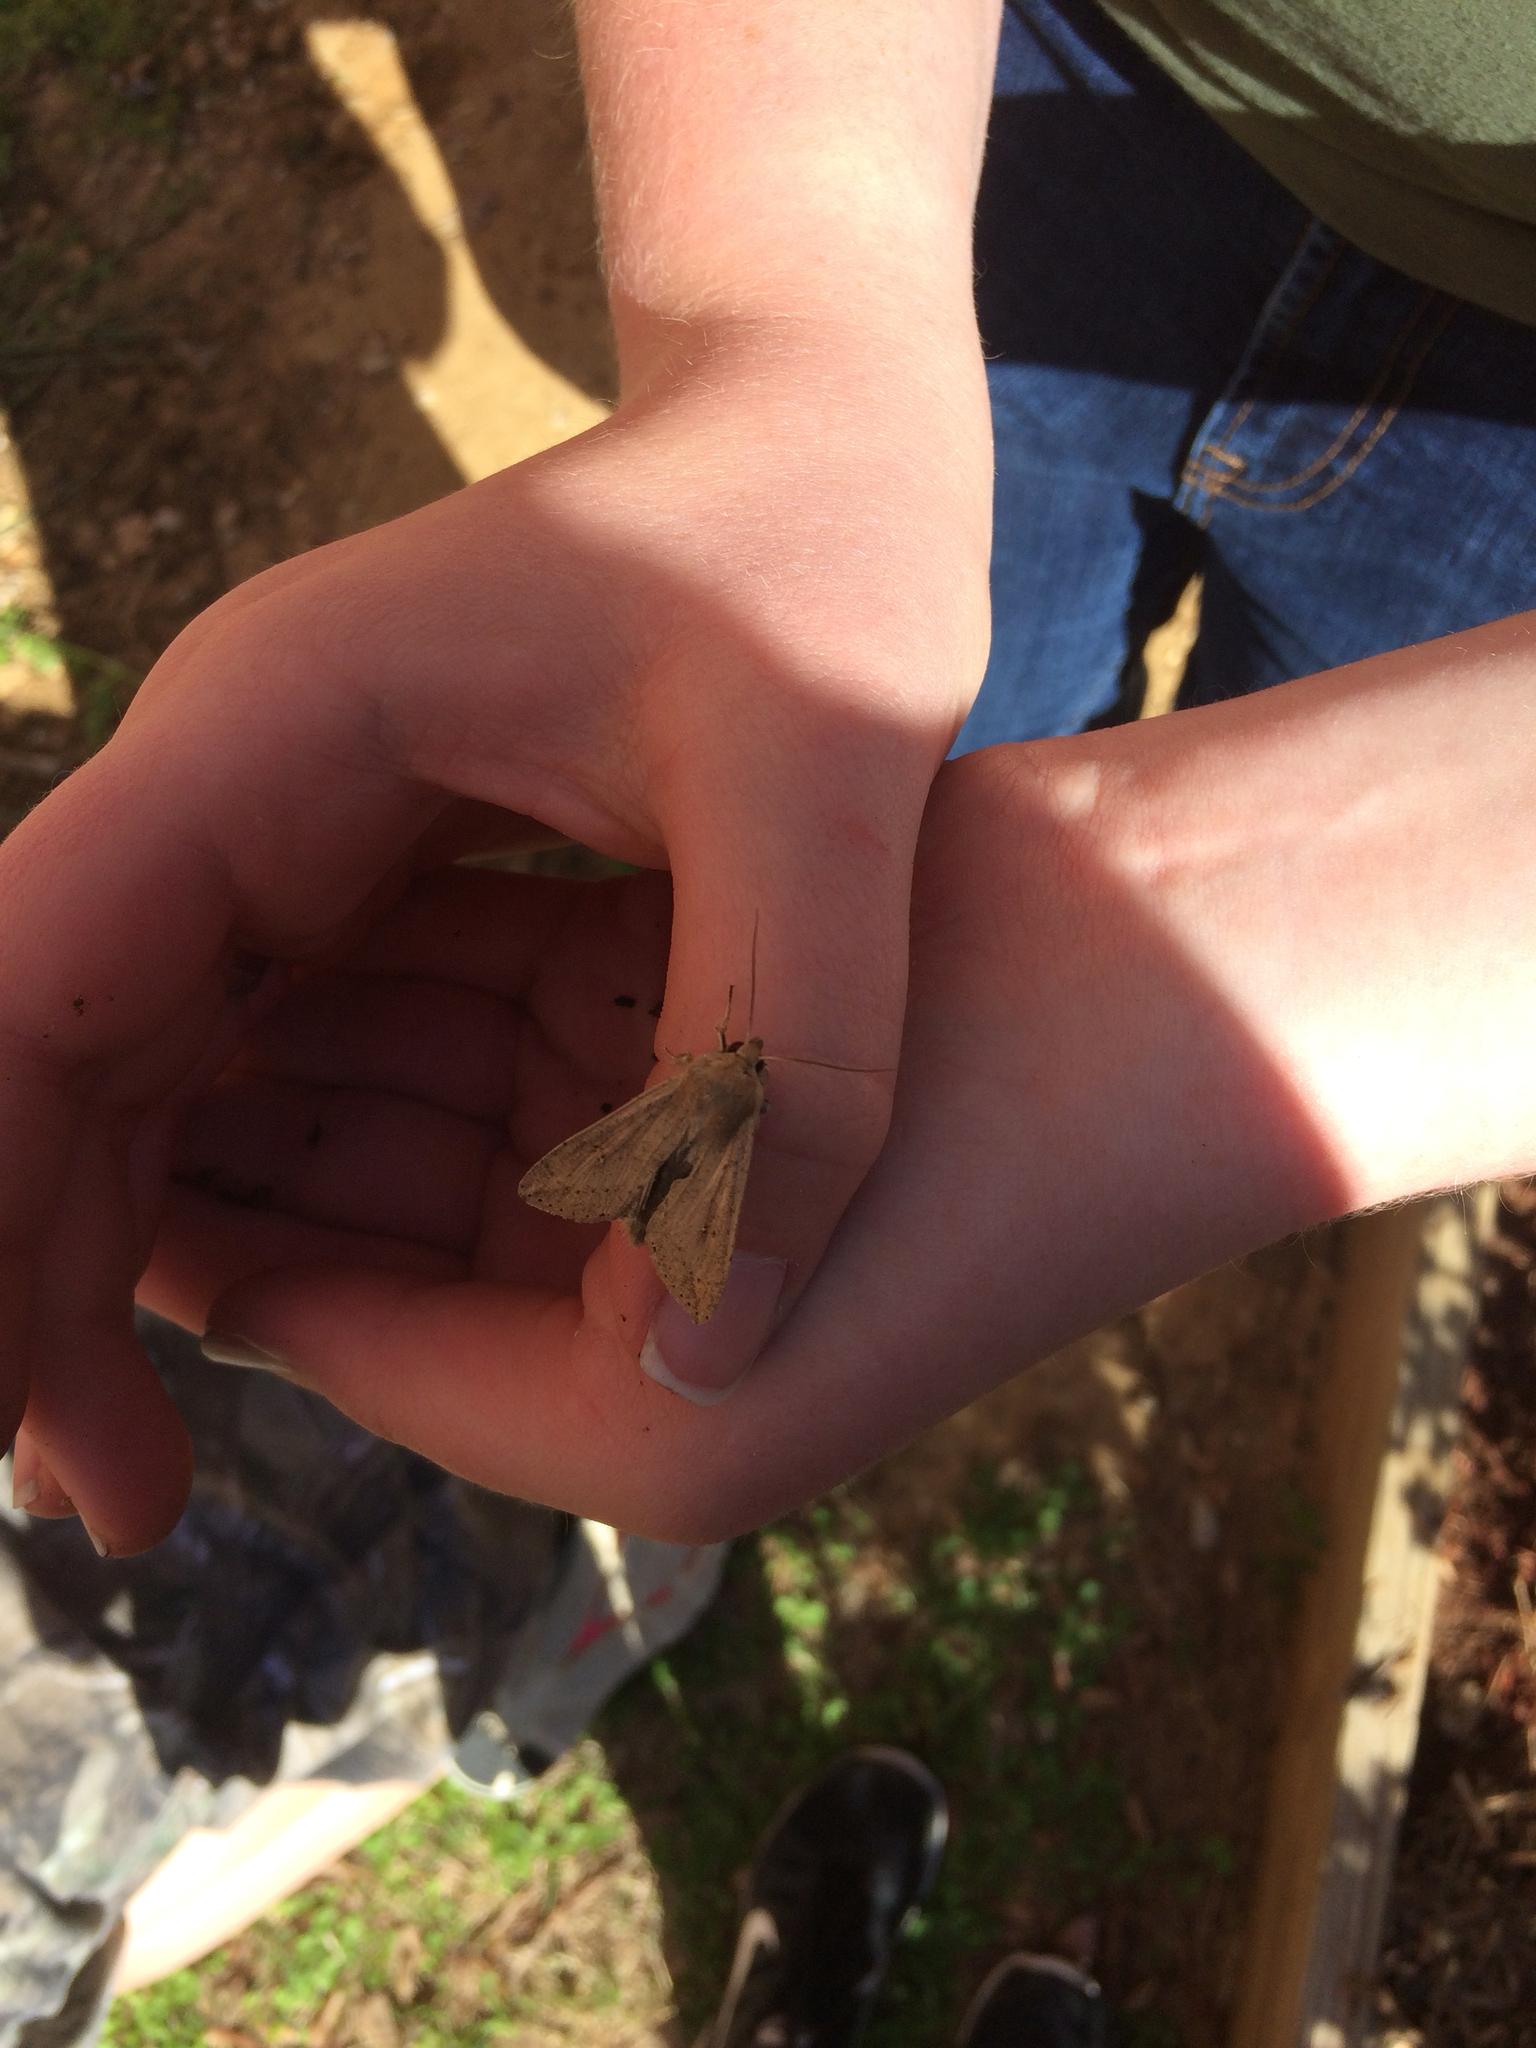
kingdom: Animalia
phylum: Arthropoda
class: Insecta
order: Lepidoptera
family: Noctuidae
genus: Mythimna
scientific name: Mythimna unipuncta
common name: White-speck
